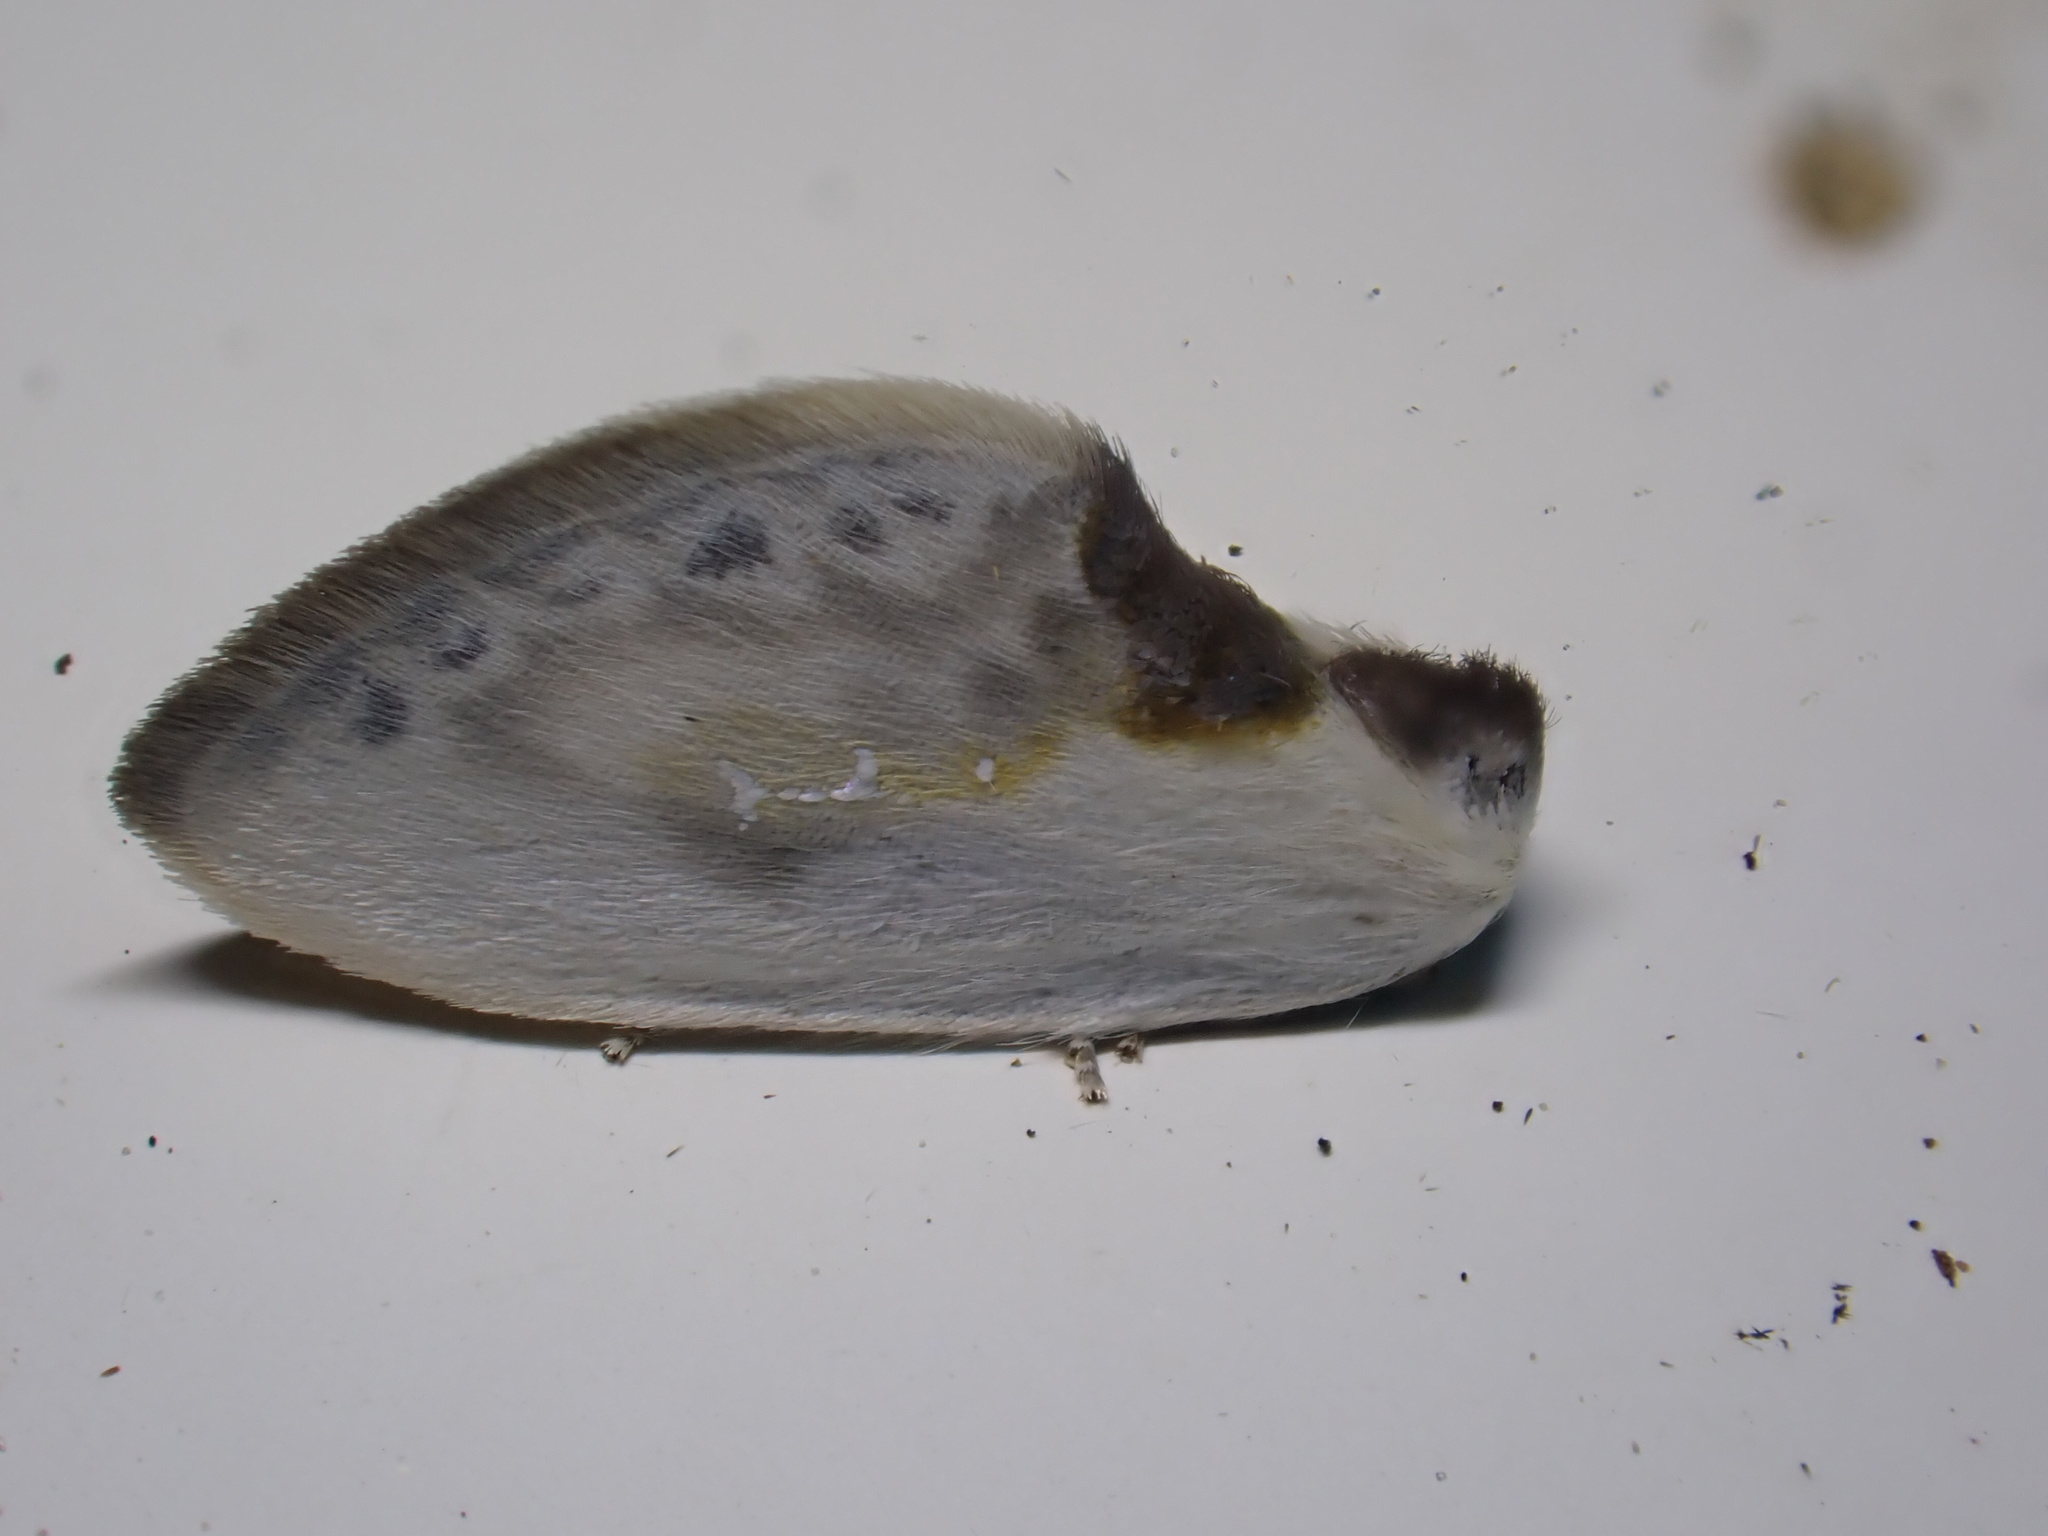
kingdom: Animalia
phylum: Arthropoda
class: Insecta
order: Lepidoptera
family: Drepanidae
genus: Cilix
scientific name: Cilix glaucata
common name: Chinese character
